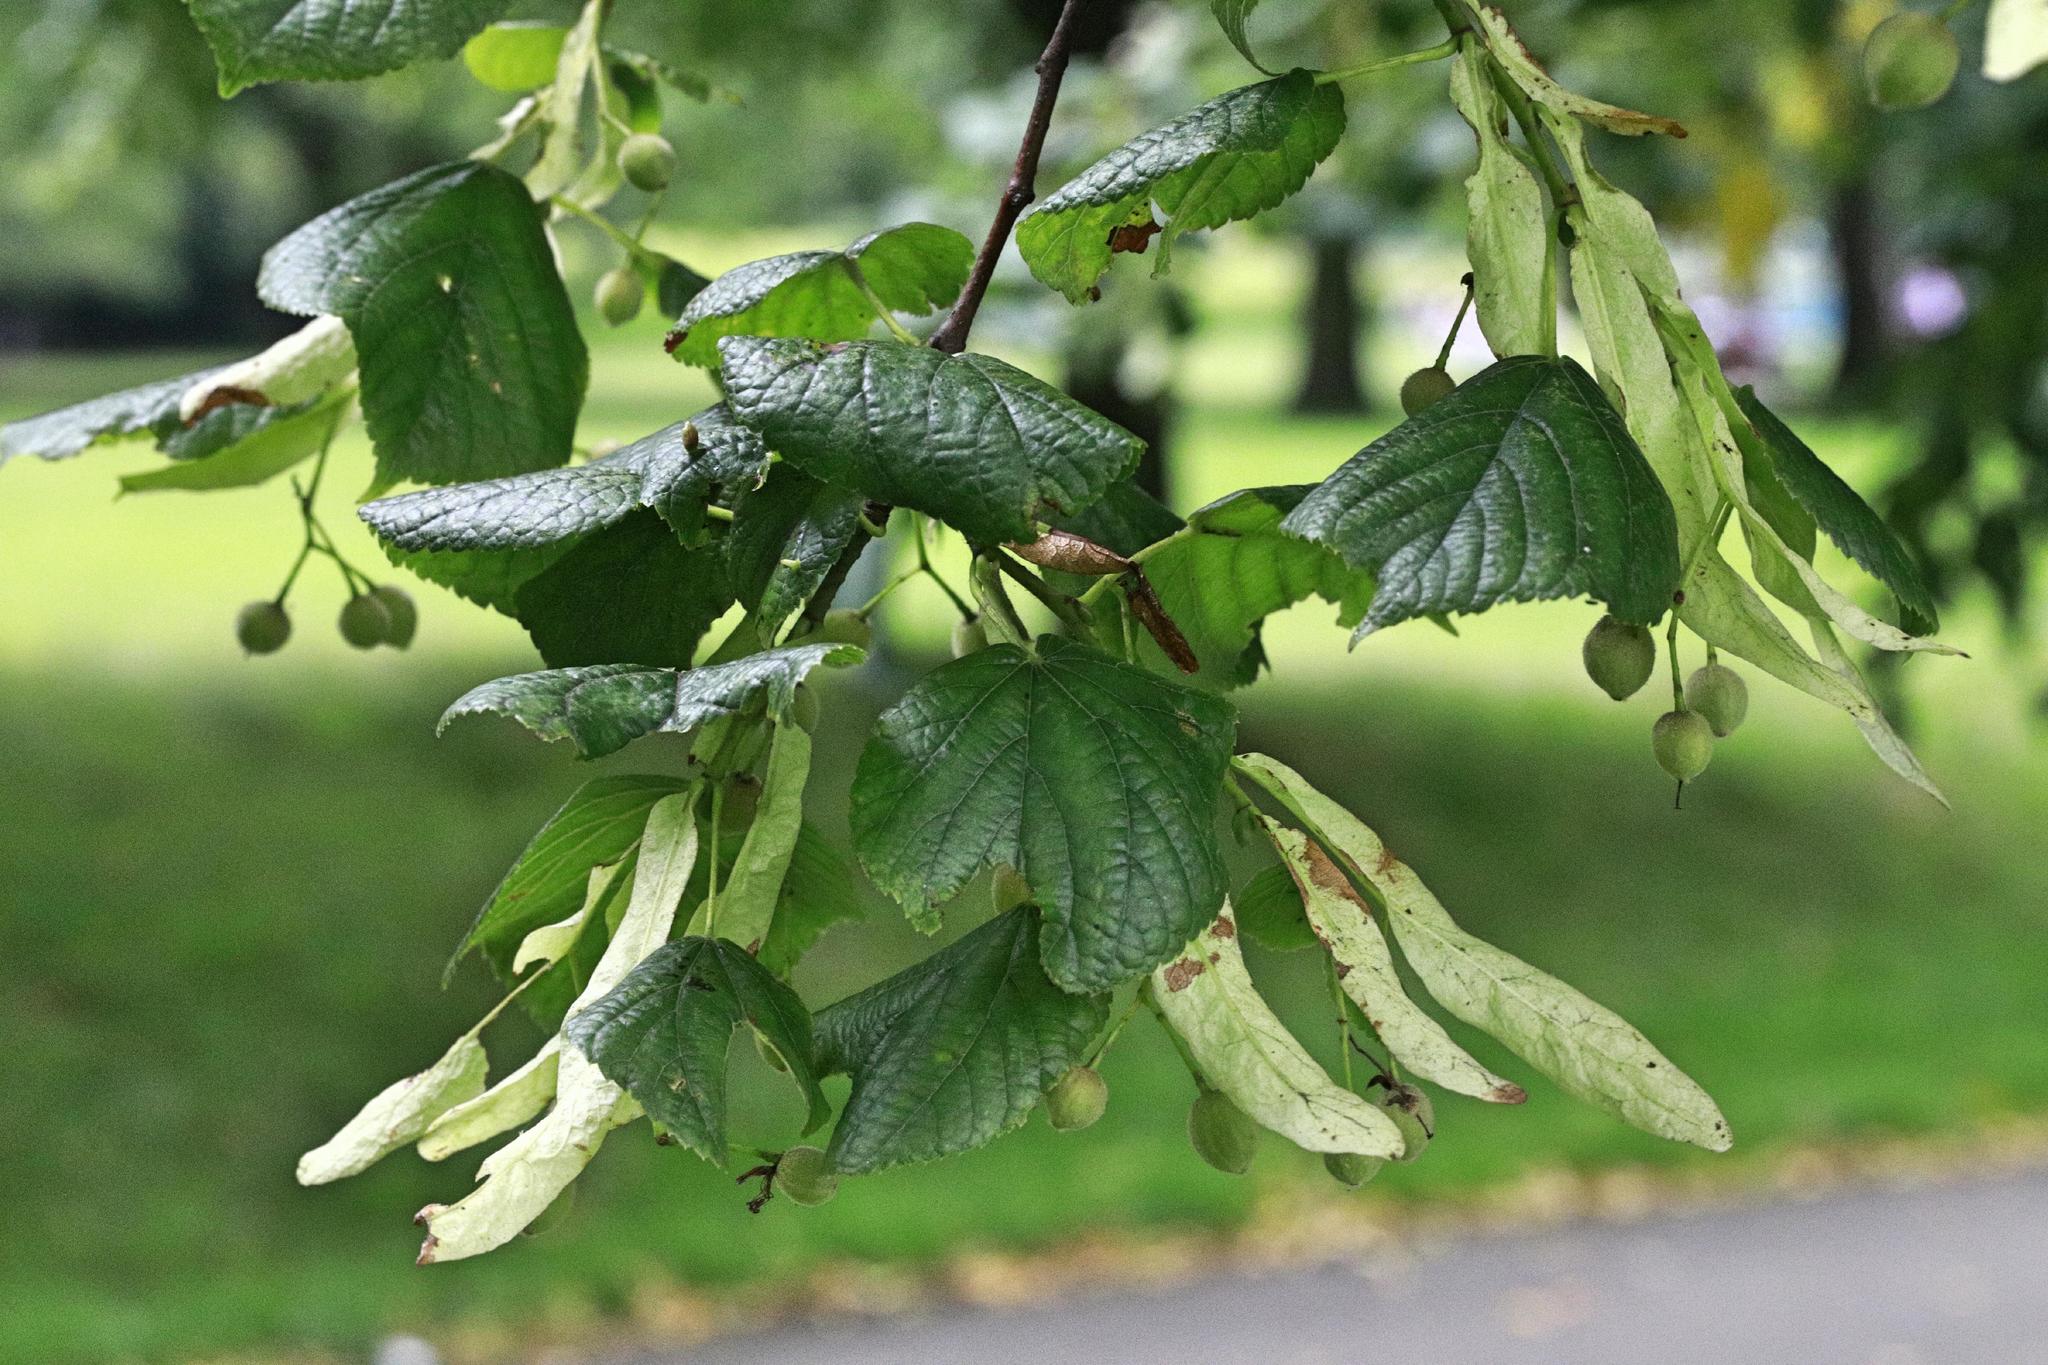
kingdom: Plantae
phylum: Tracheophyta
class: Magnoliopsida
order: Malvales
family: Malvaceae
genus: Tilia
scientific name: Tilia europaea
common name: European linden
